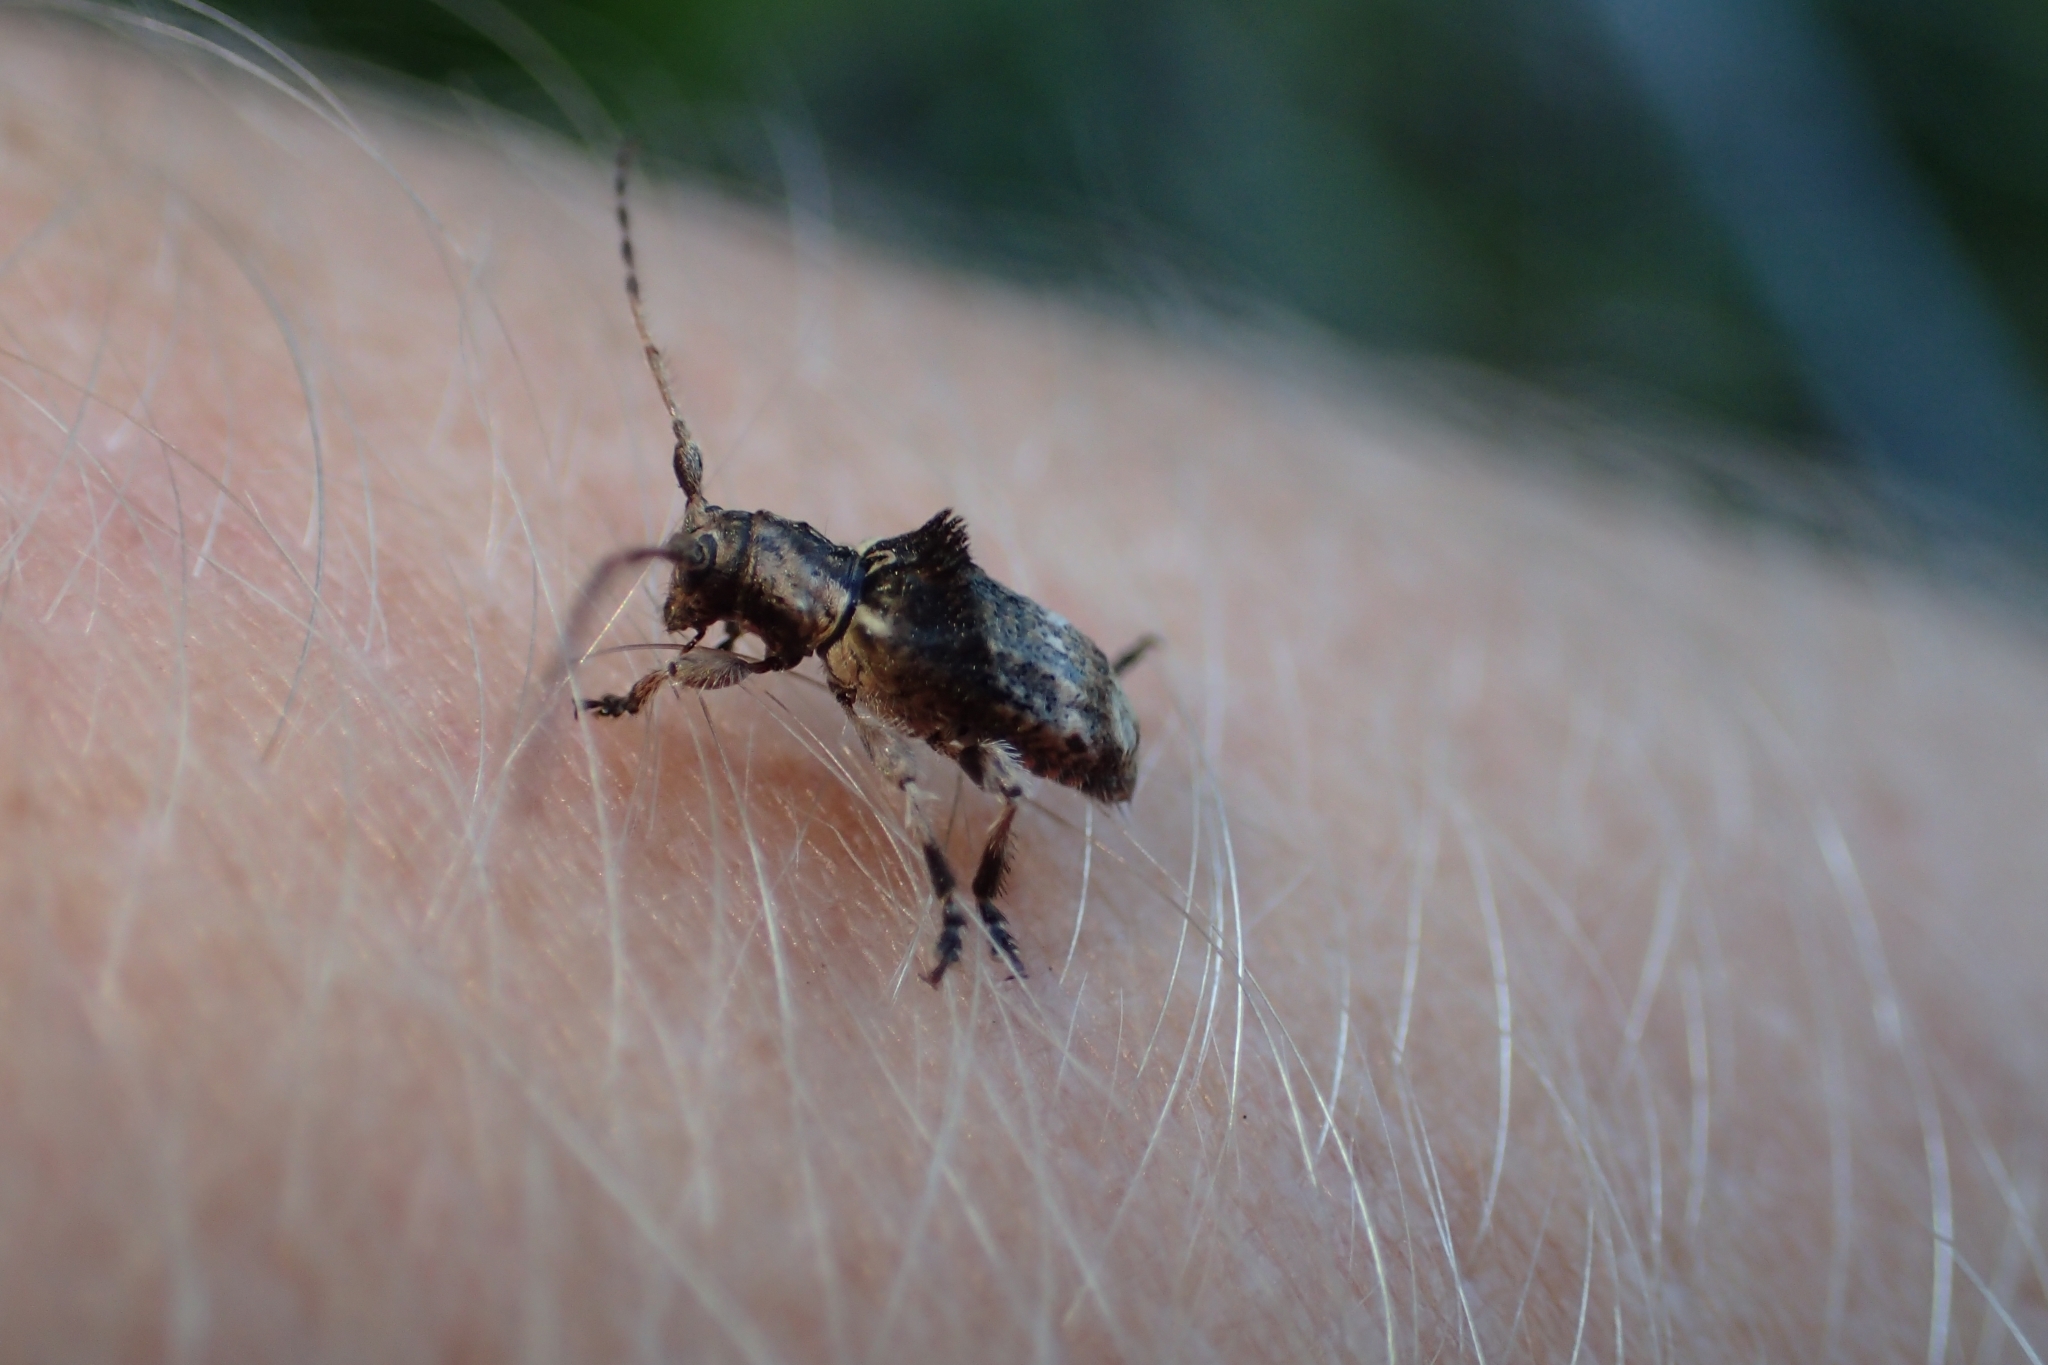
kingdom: Animalia
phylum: Arthropoda
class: Insecta
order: Coleoptera
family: Cerambycidae
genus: Hybolasius
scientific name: Hybolasius cristus
